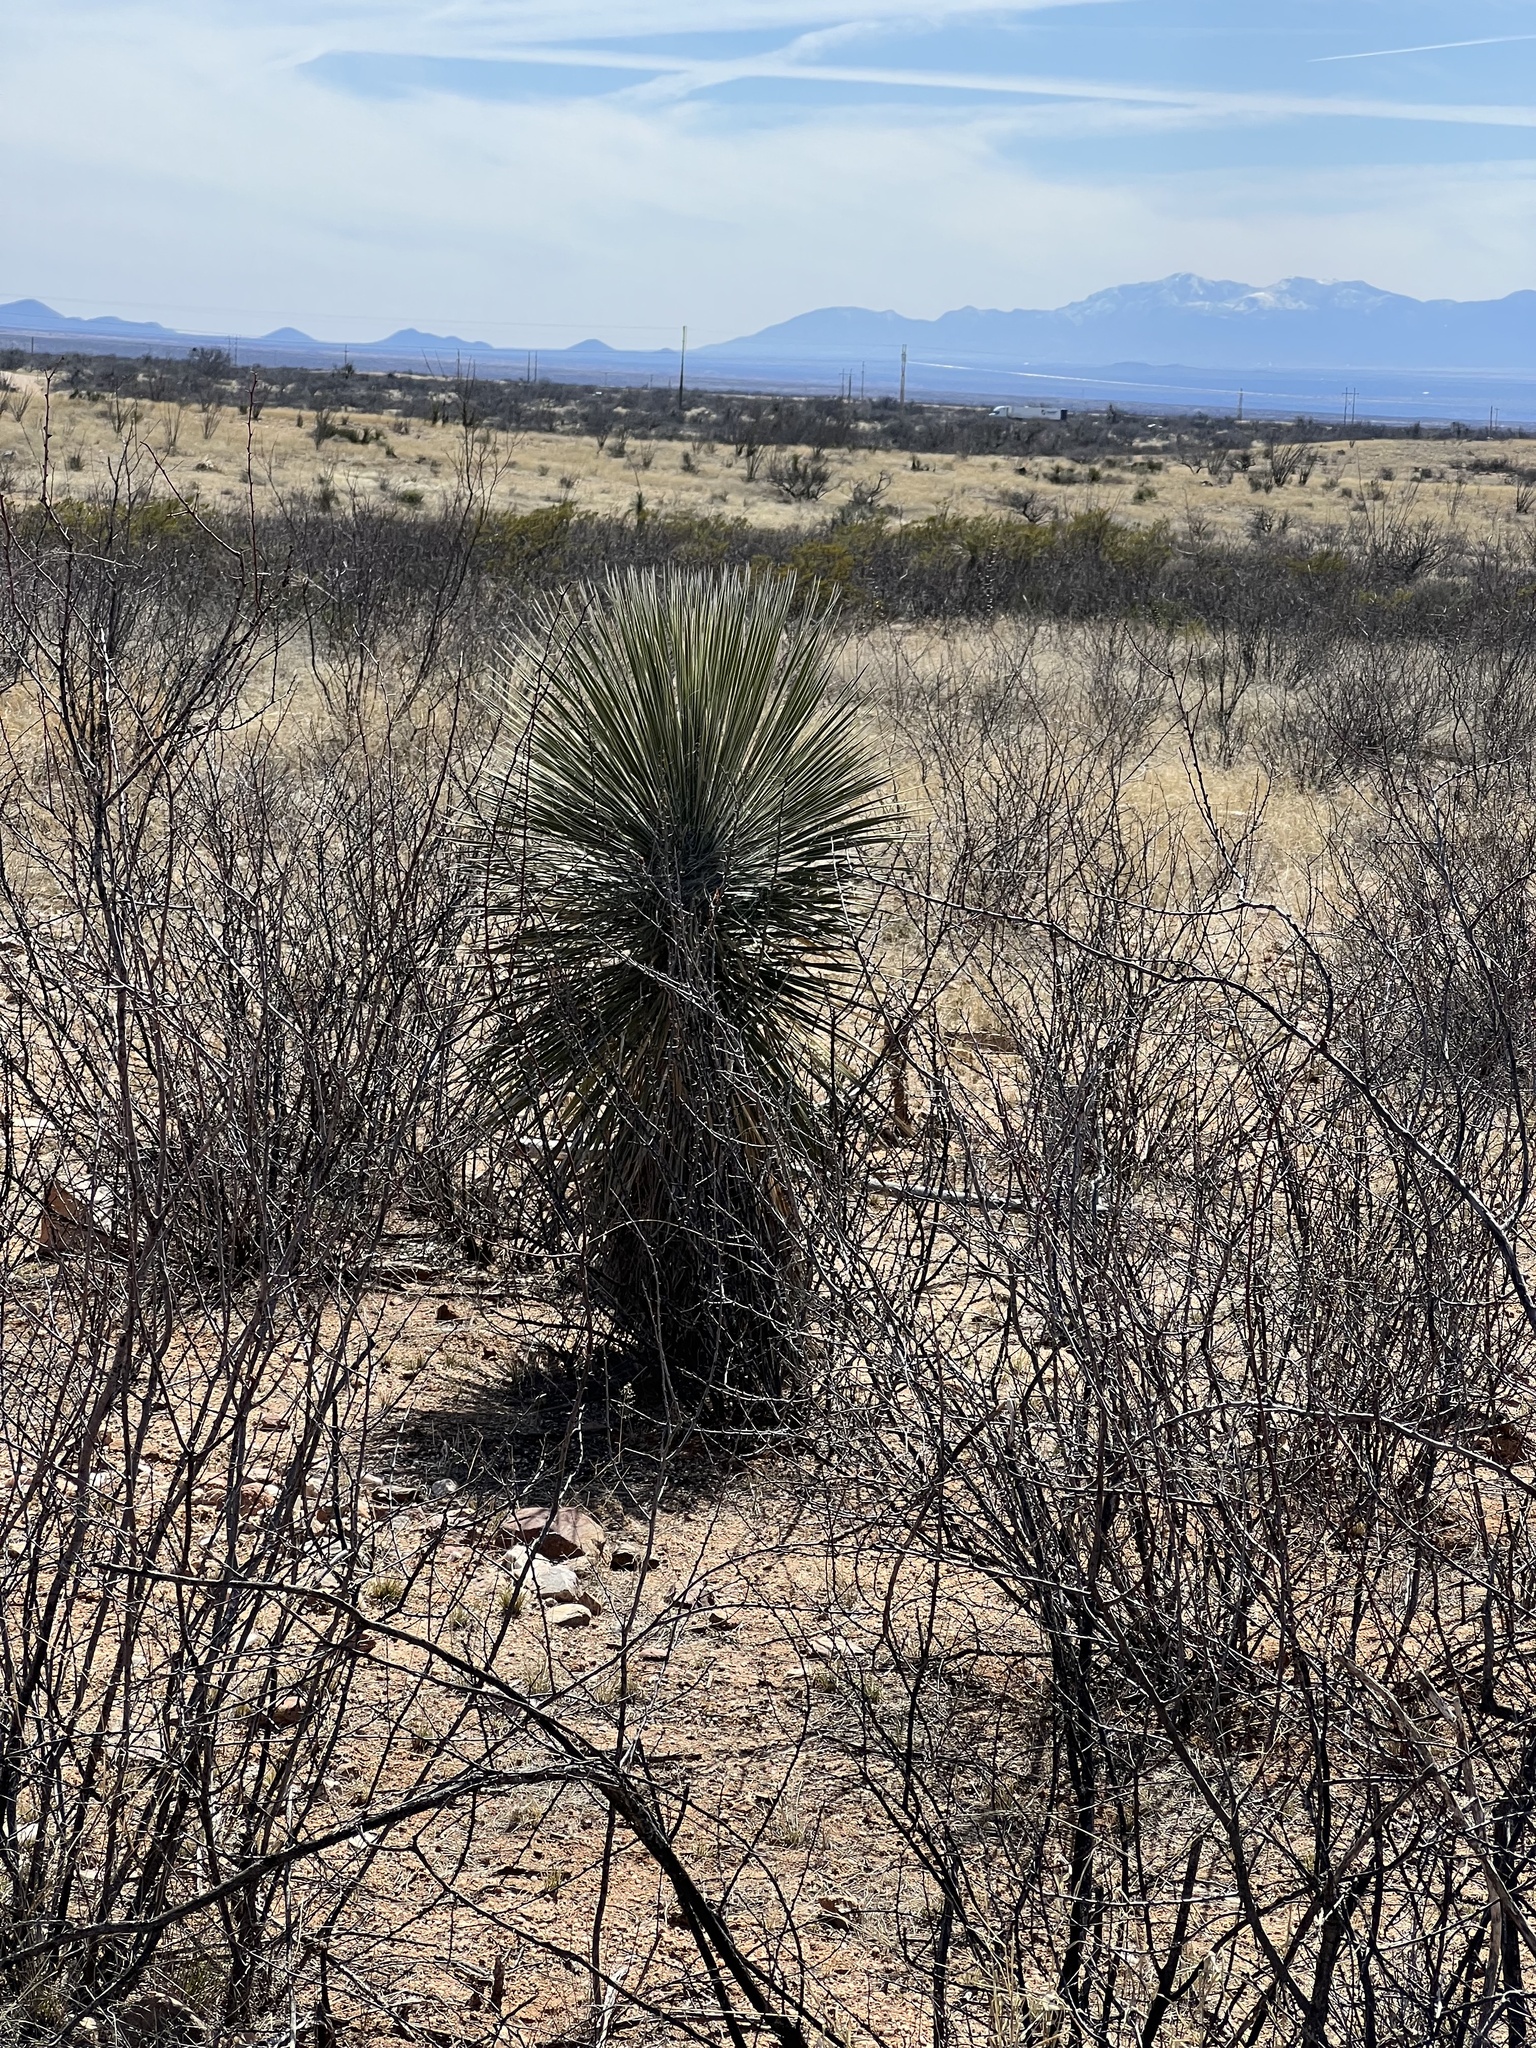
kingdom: Plantae
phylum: Tracheophyta
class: Liliopsida
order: Asparagales
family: Asparagaceae
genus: Yucca
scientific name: Yucca elata
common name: Palmella
